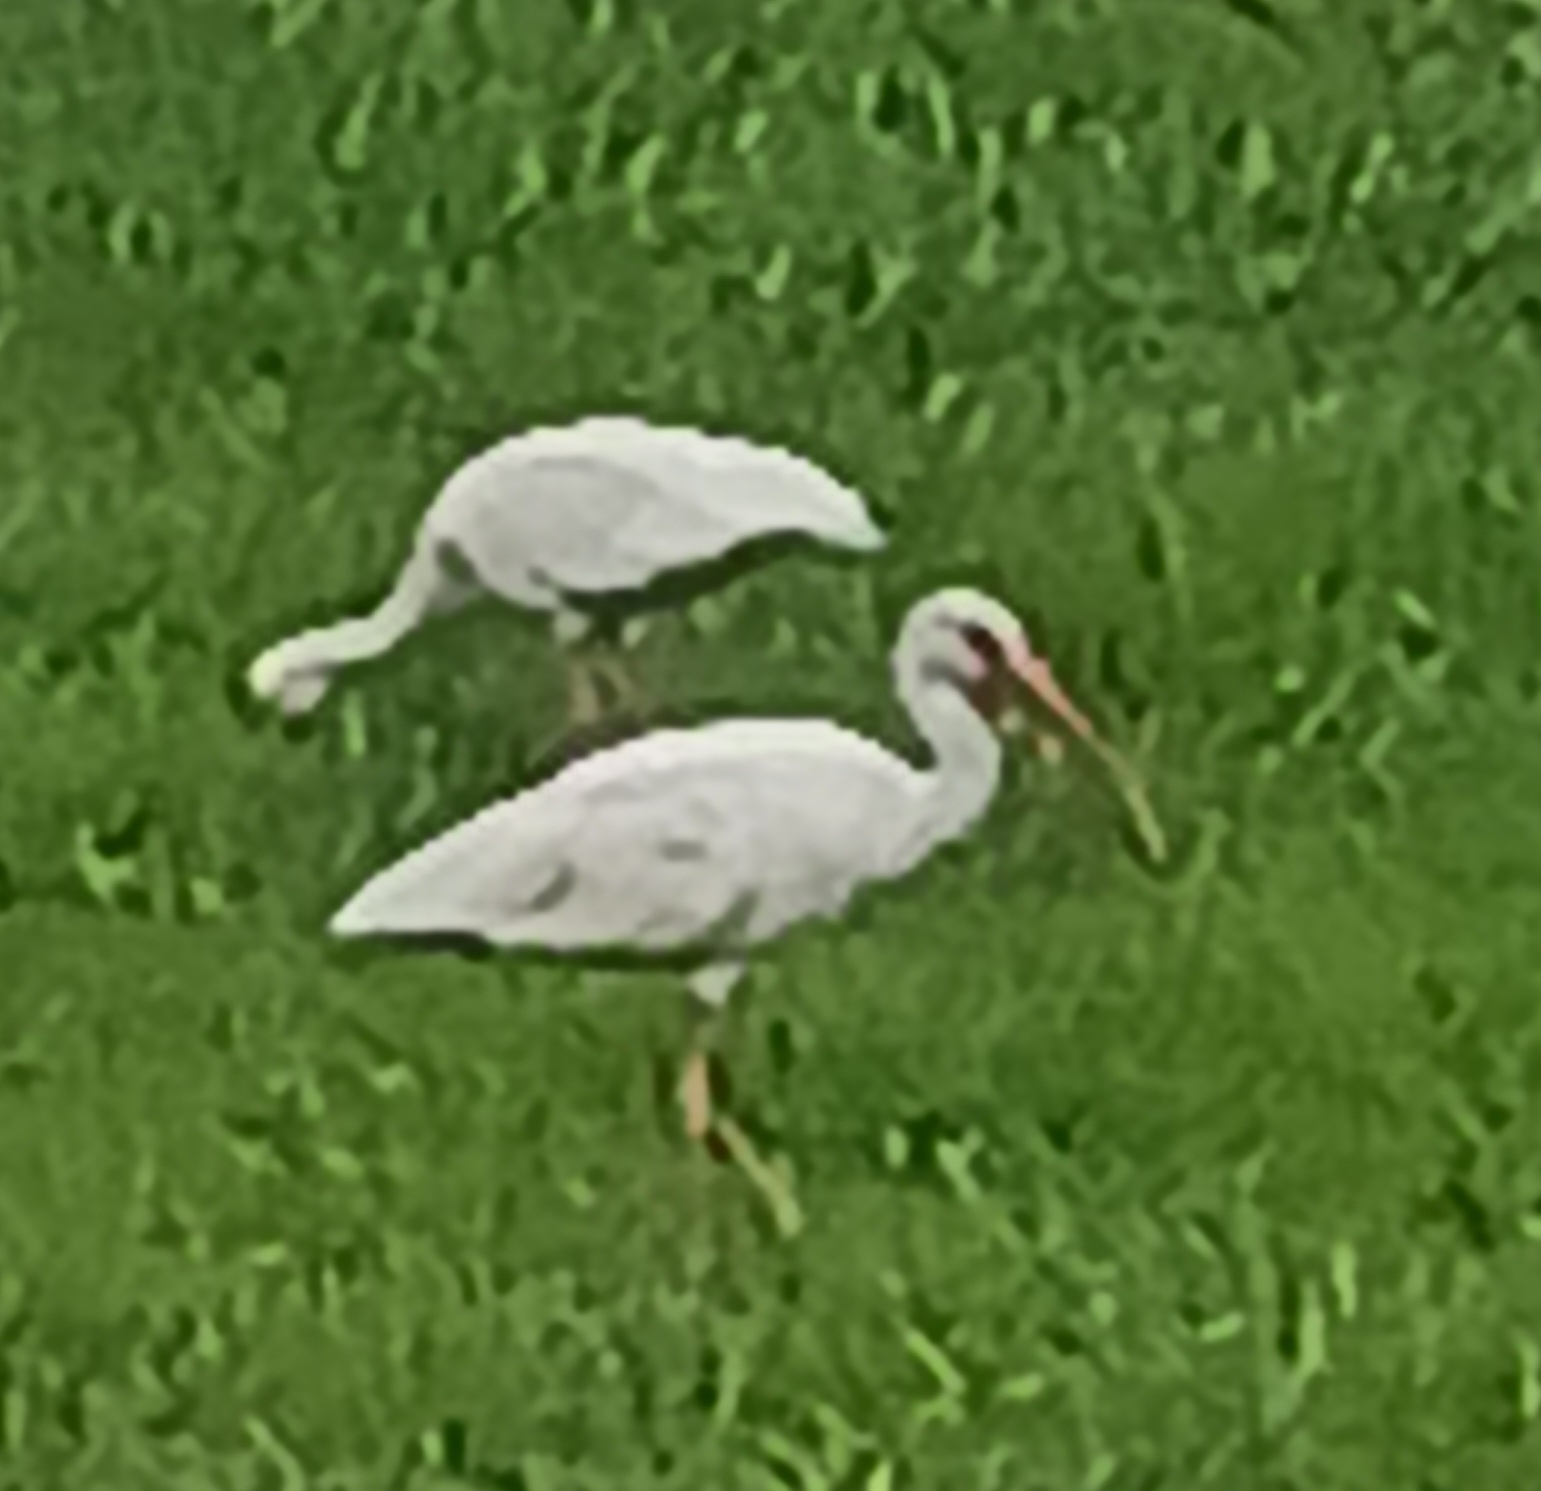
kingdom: Animalia
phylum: Chordata
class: Aves
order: Pelecaniformes
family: Threskiornithidae
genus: Eudocimus
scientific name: Eudocimus albus
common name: White ibis
